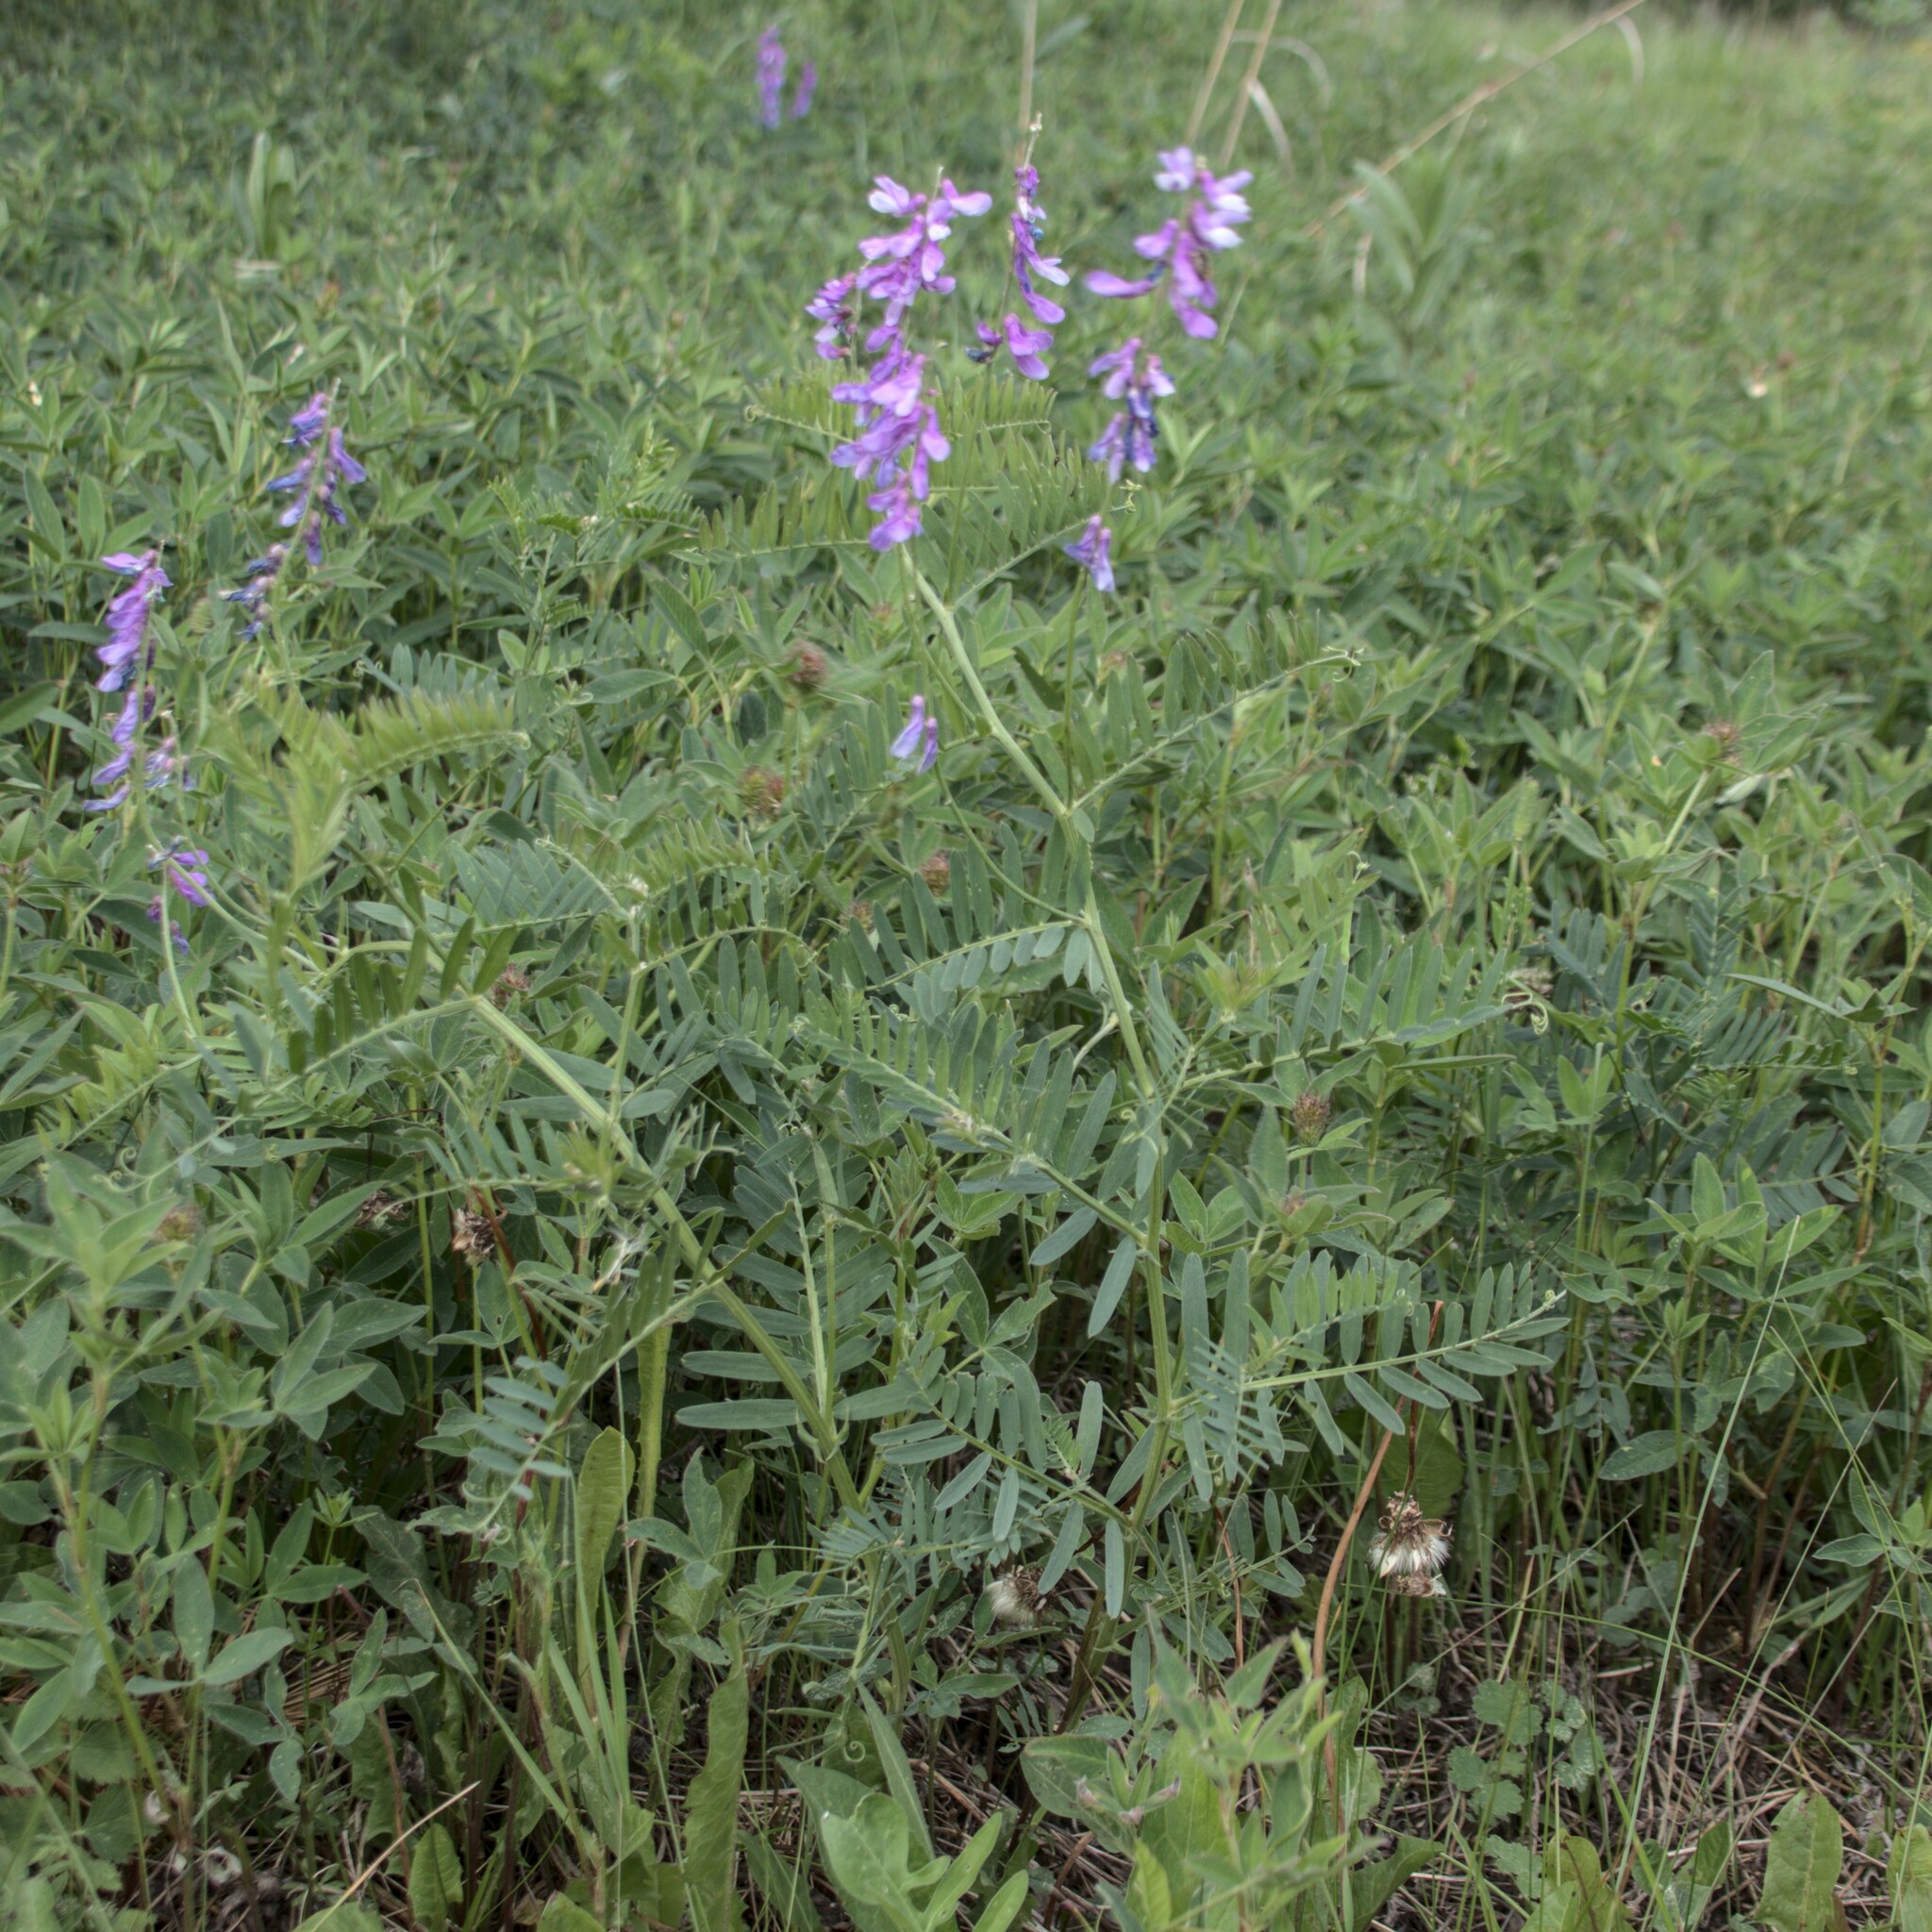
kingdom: Plantae
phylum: Tracheophyta
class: Magnoliopsida
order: Fabales
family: Fabaceae
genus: Vicia
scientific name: Vicia tenuifolia
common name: Fine-leaved vetch
